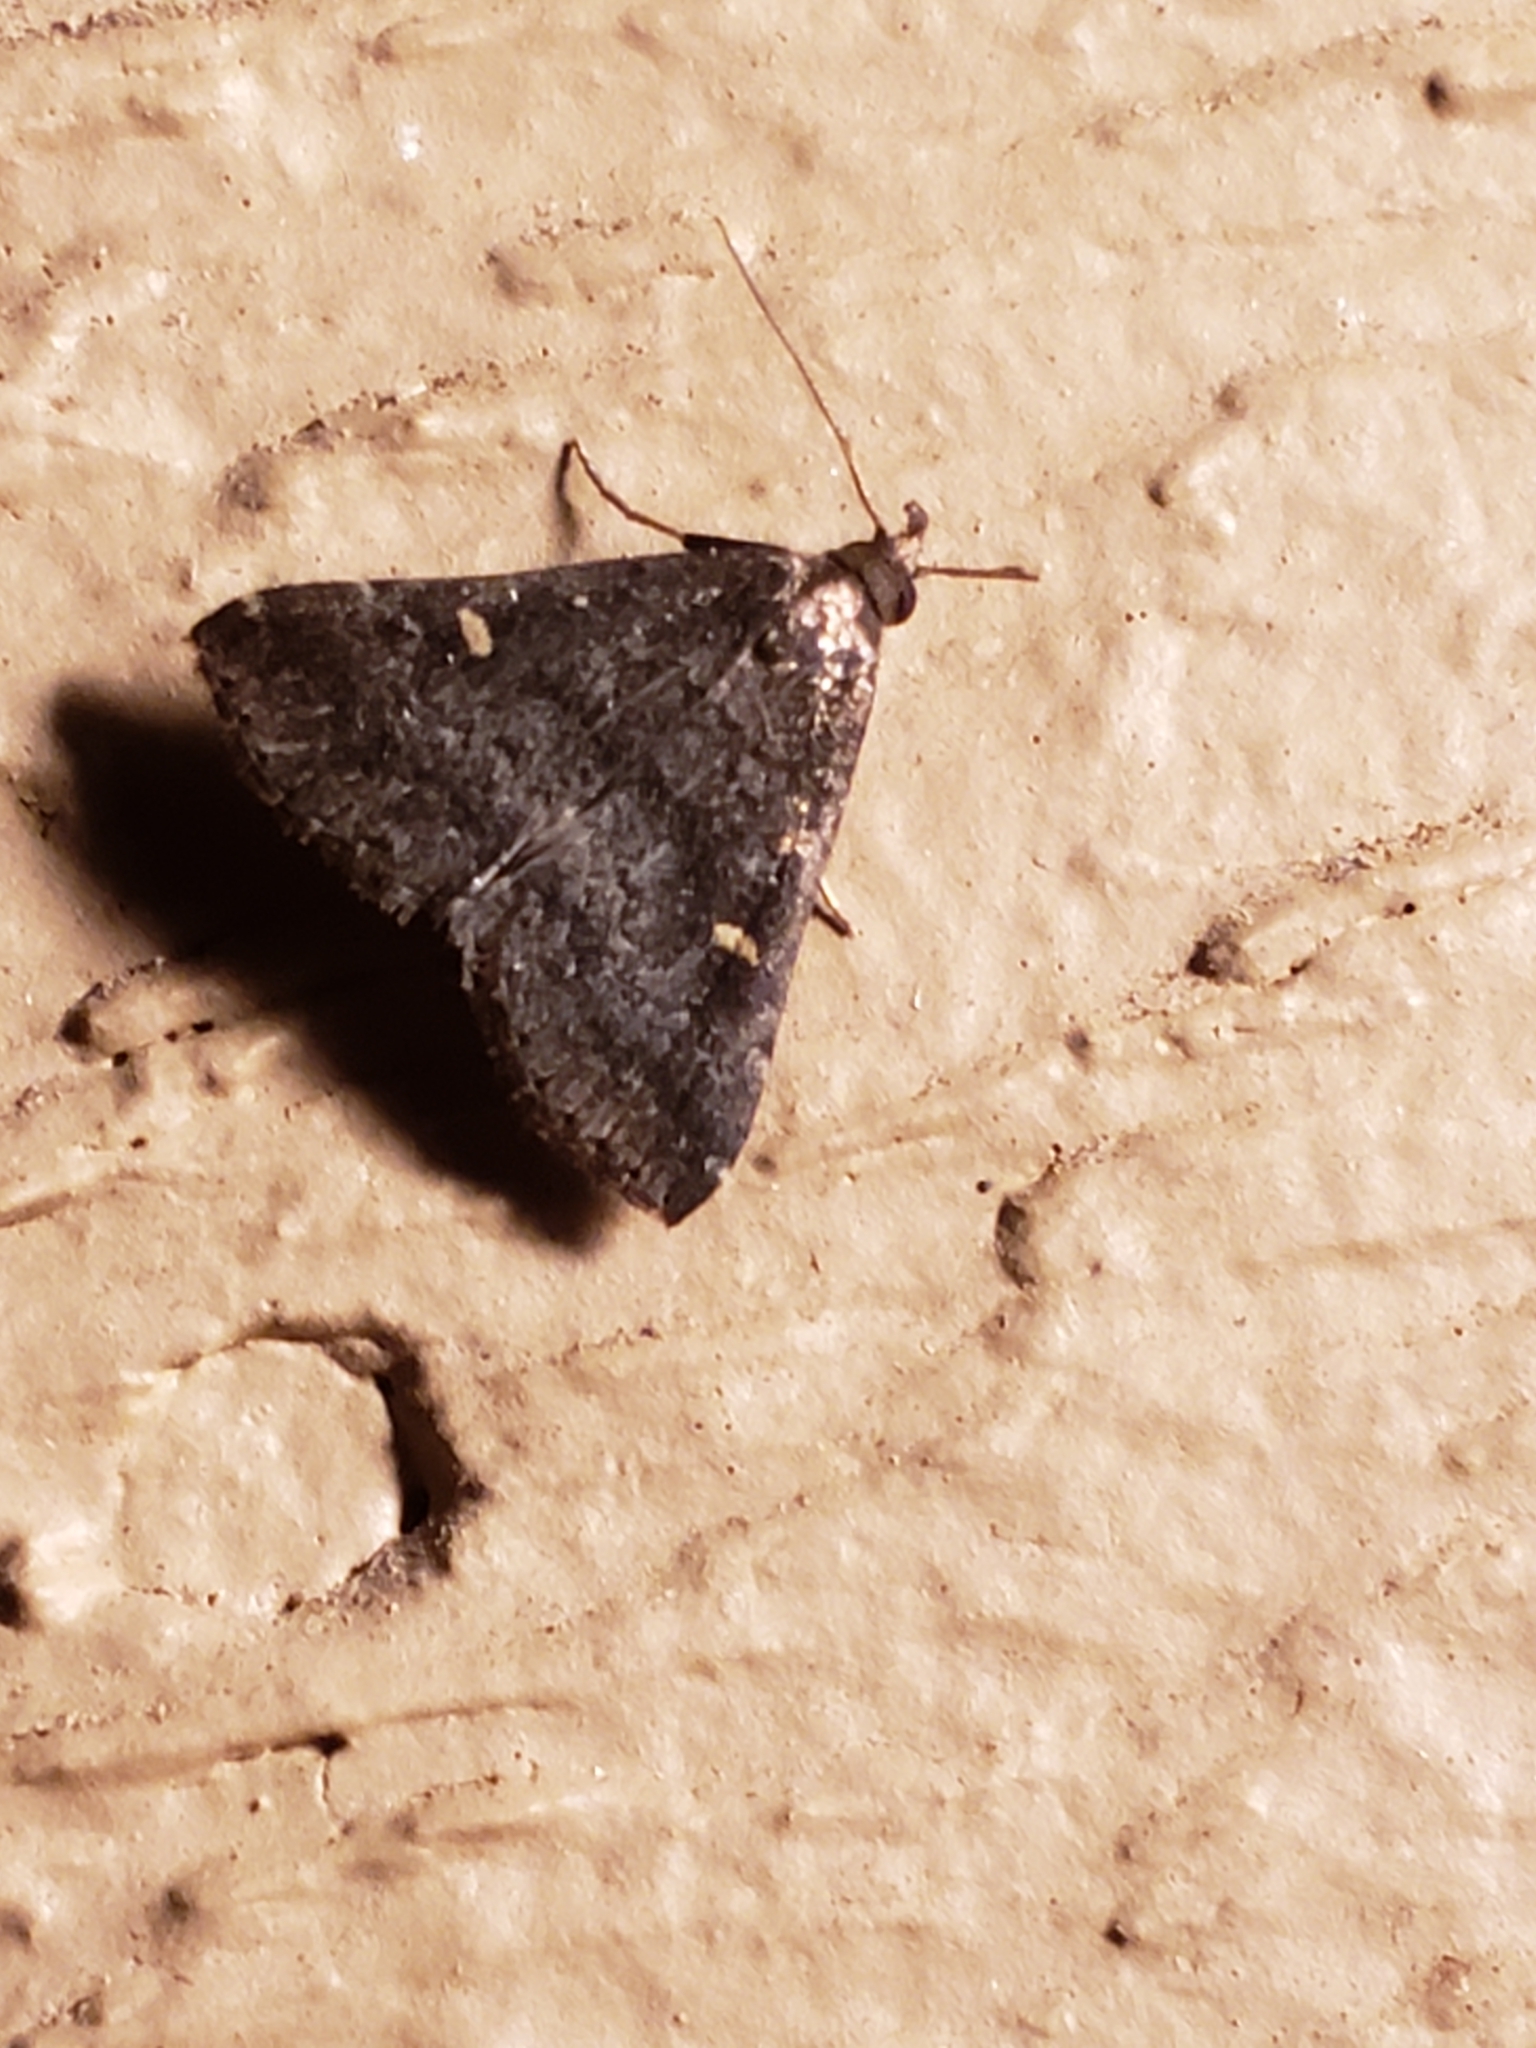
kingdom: Animalia
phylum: Arthropoda
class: Insecta
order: Lepidoptera
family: Erebidae
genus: Tetanolita
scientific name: Tetanolita mynesalis
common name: Smoky tetanolita moth
